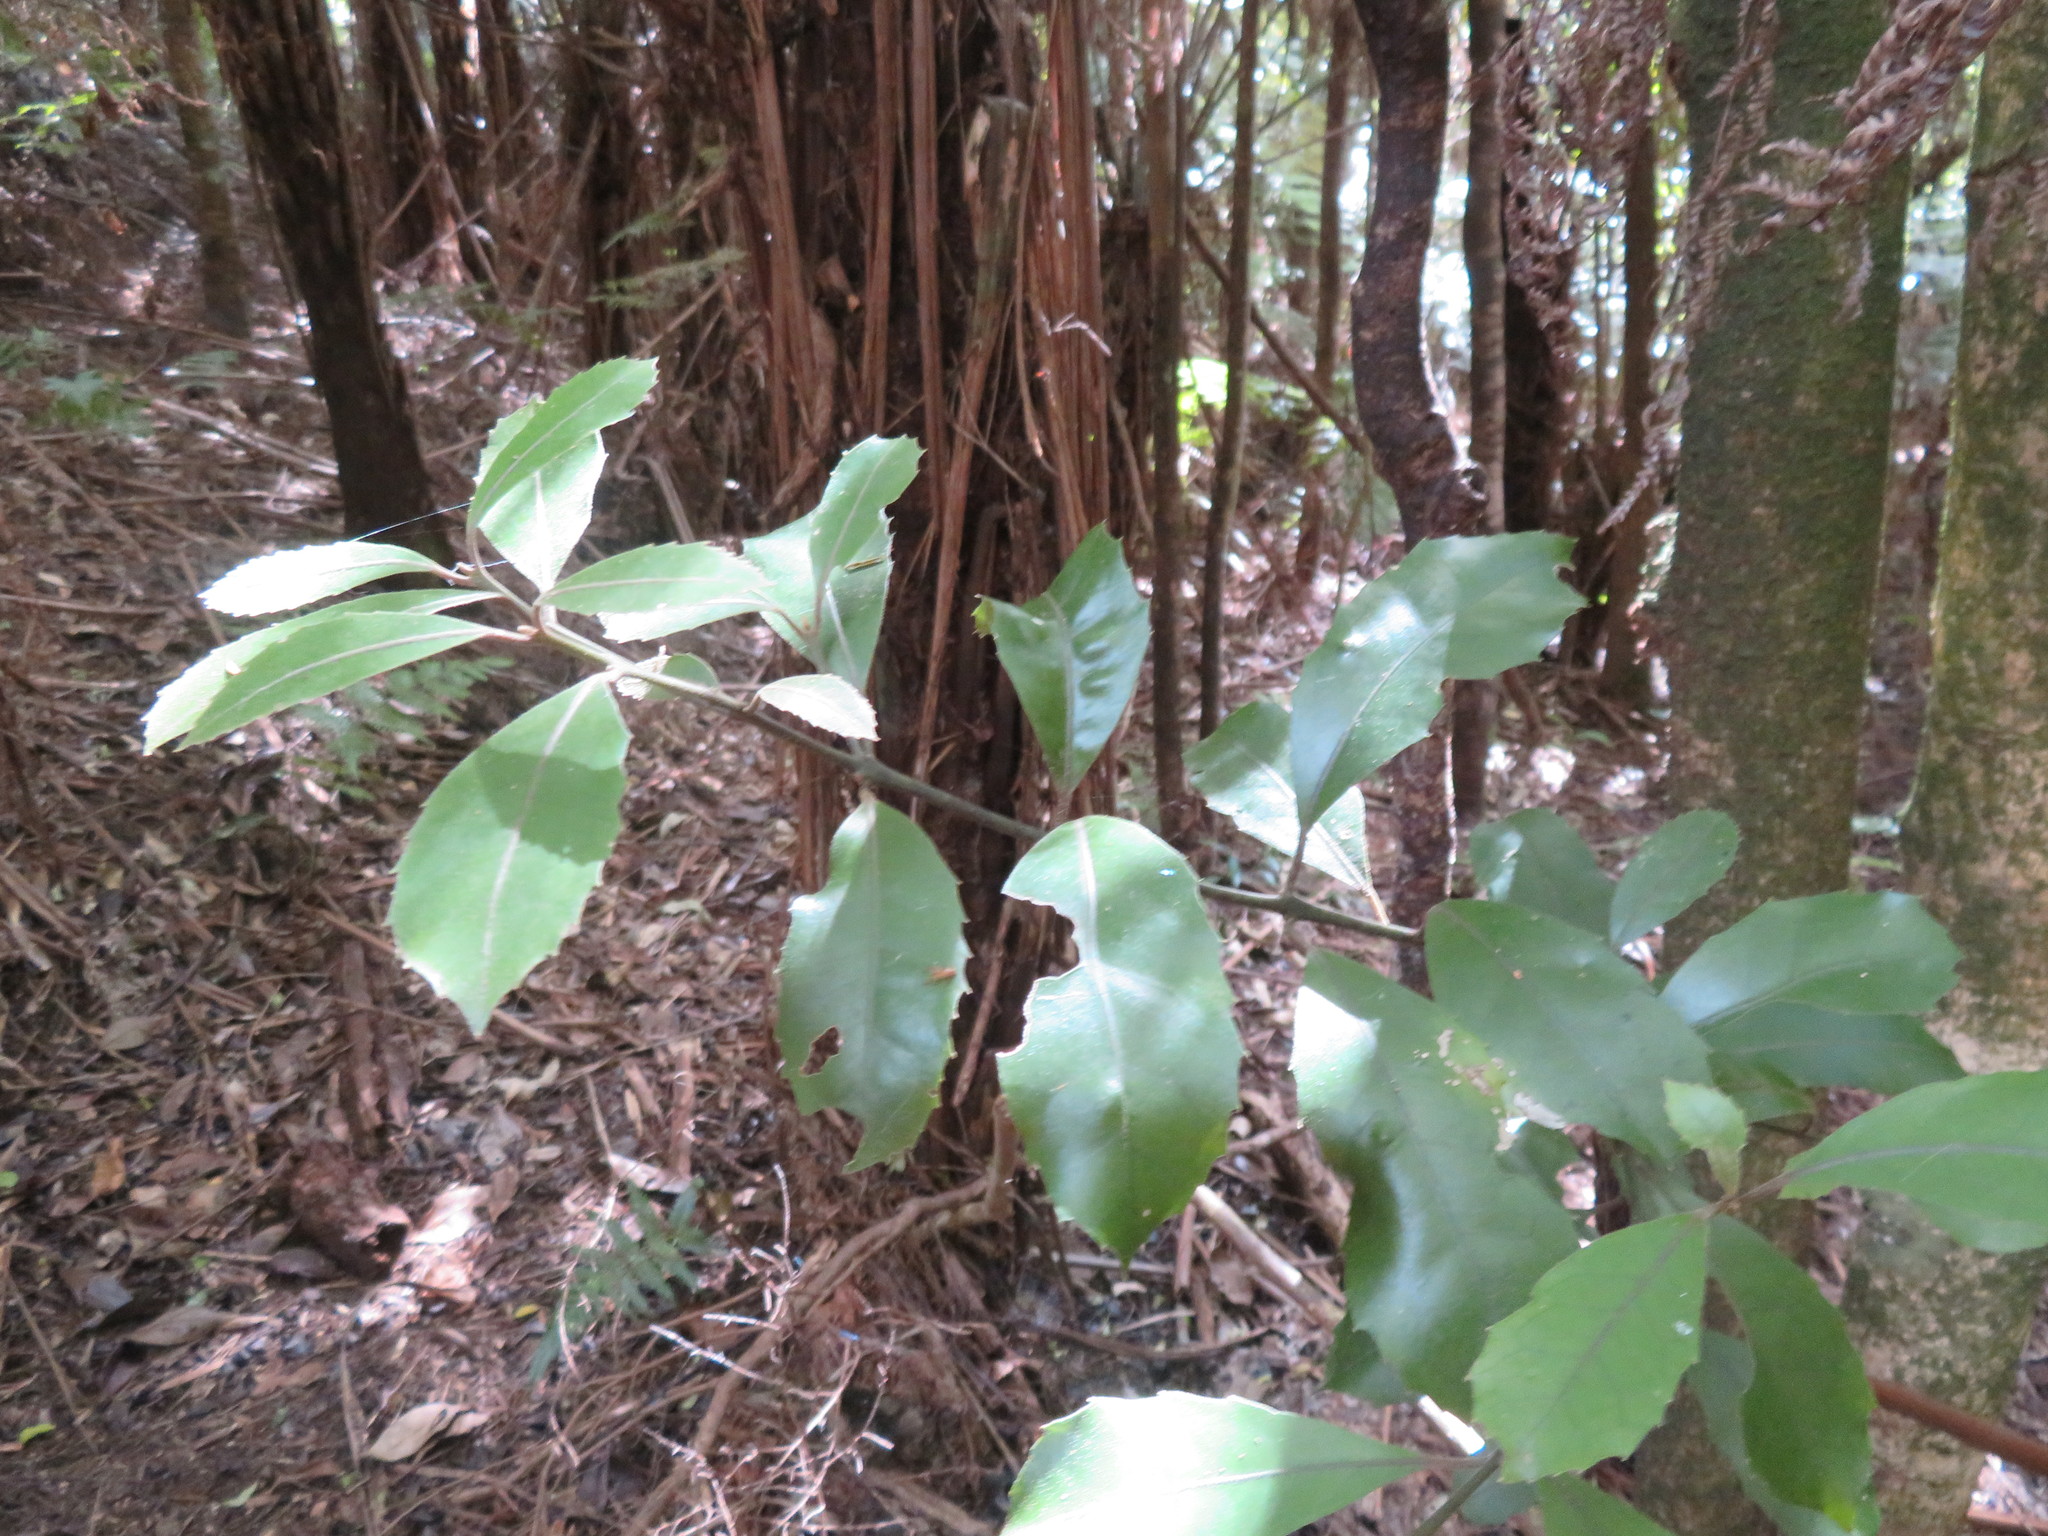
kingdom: Plantae
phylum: Tracheophyta
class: Magnoliopsida
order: Laurales
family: Monimiaceae
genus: Hedycarya
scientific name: Hedycarya arborea
